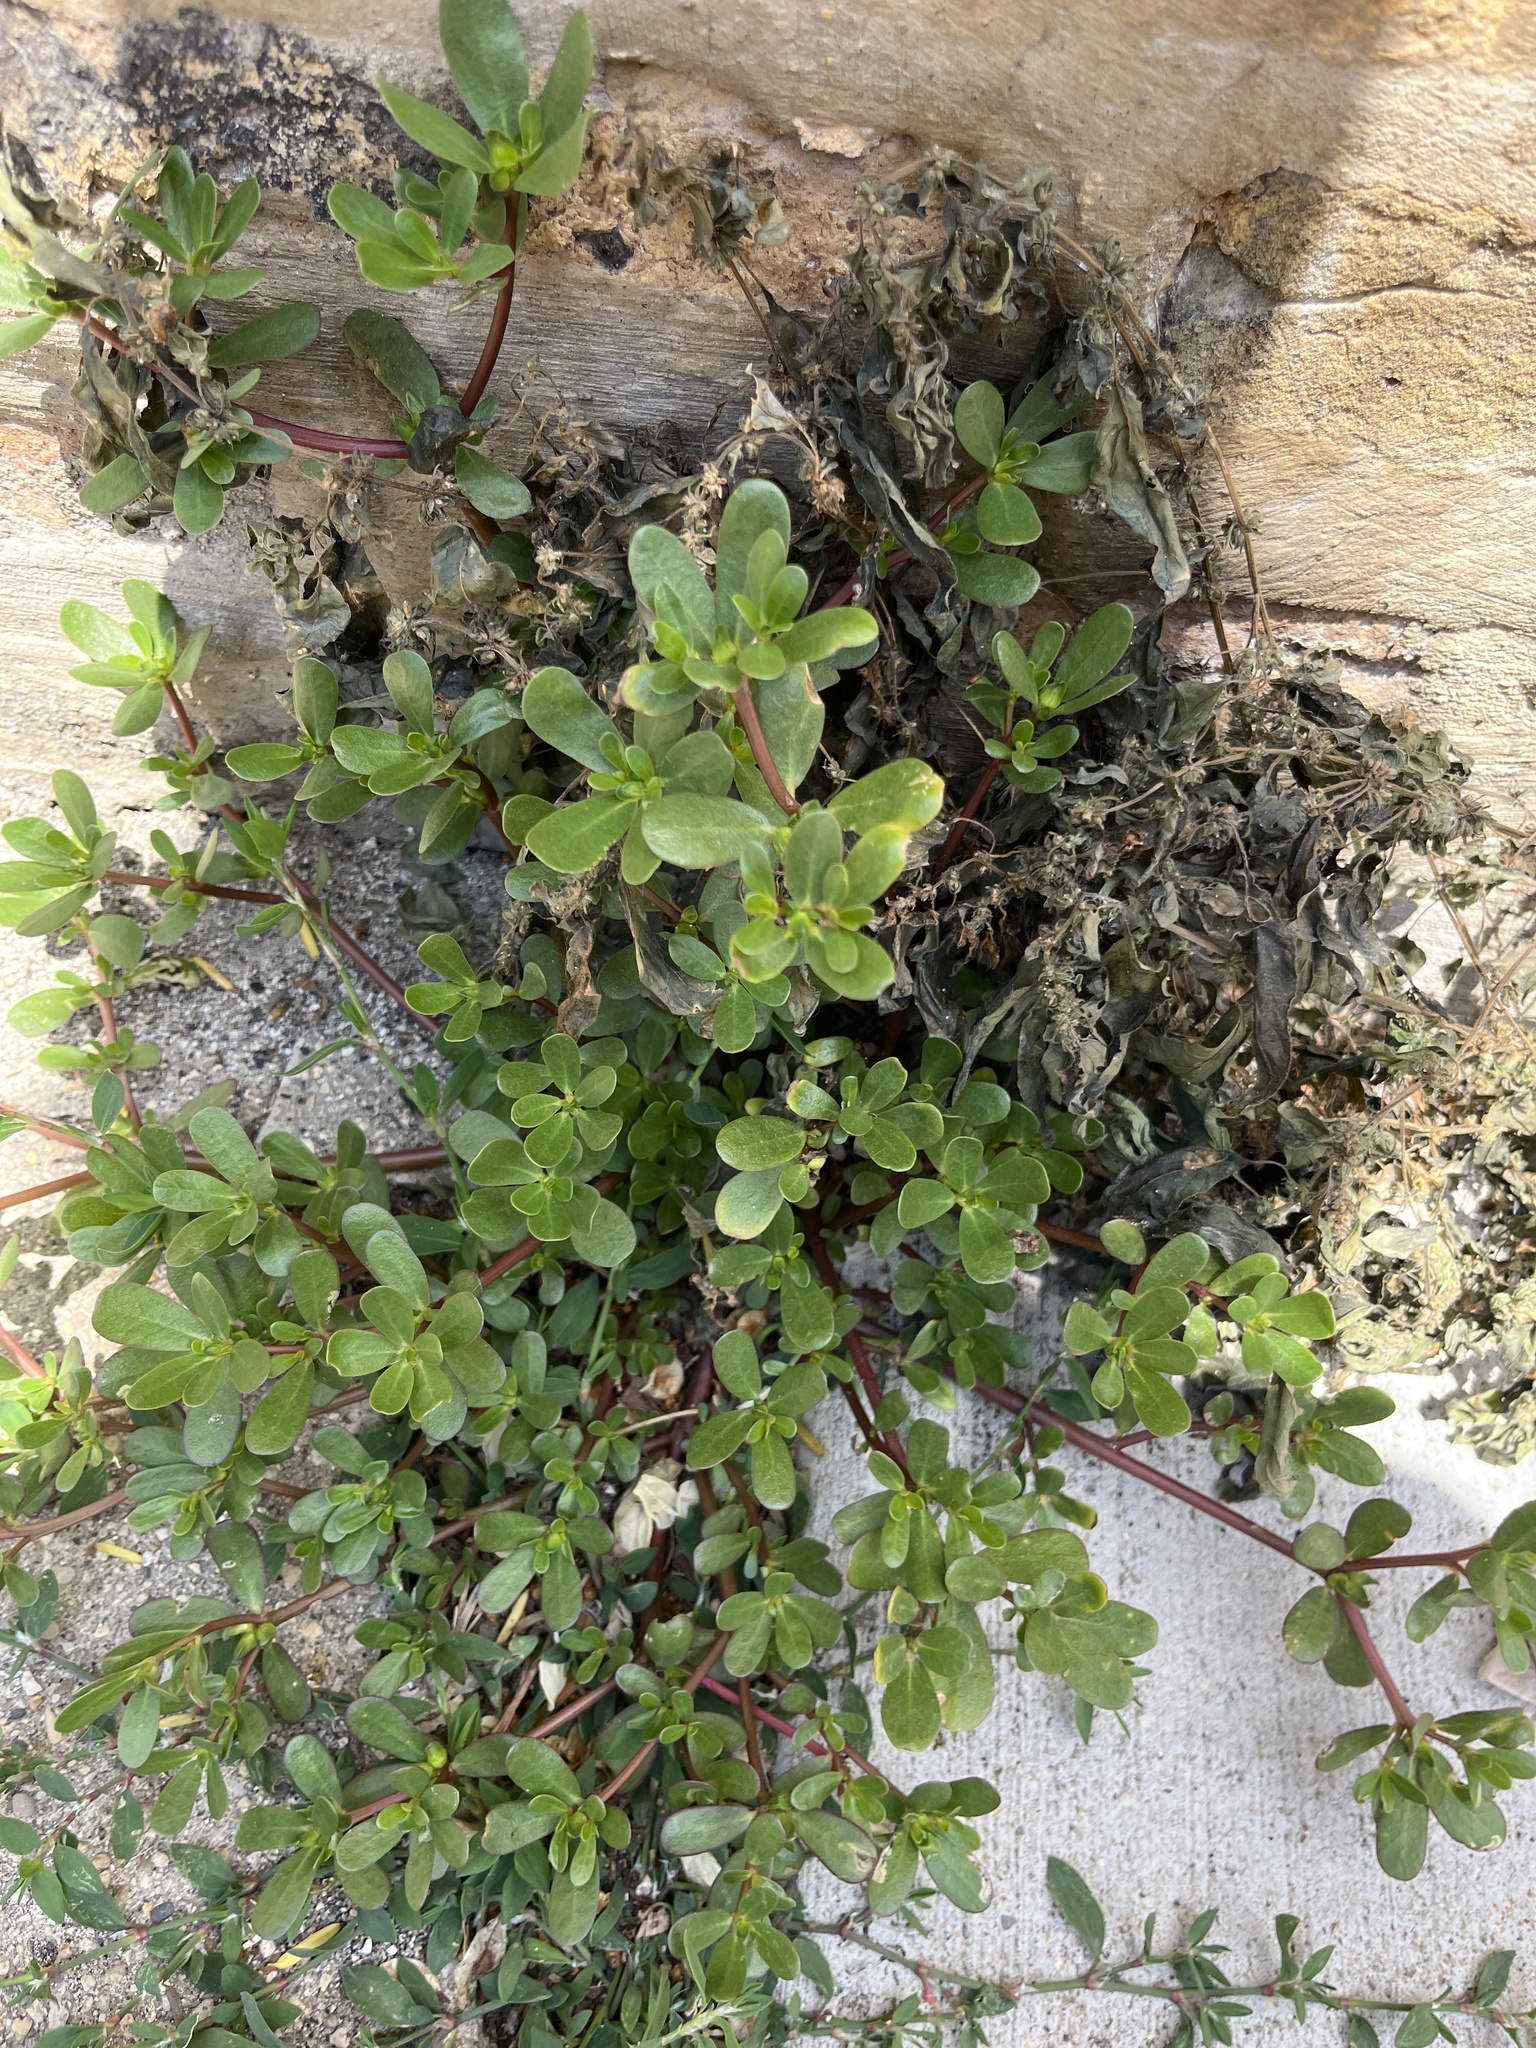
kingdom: Plantae
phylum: Tracheophyta
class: Magnoliopsida
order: Caryophyllales
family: Portulacaceae
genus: Portulaca
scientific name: Portulaca oleracea
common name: Common purslane
